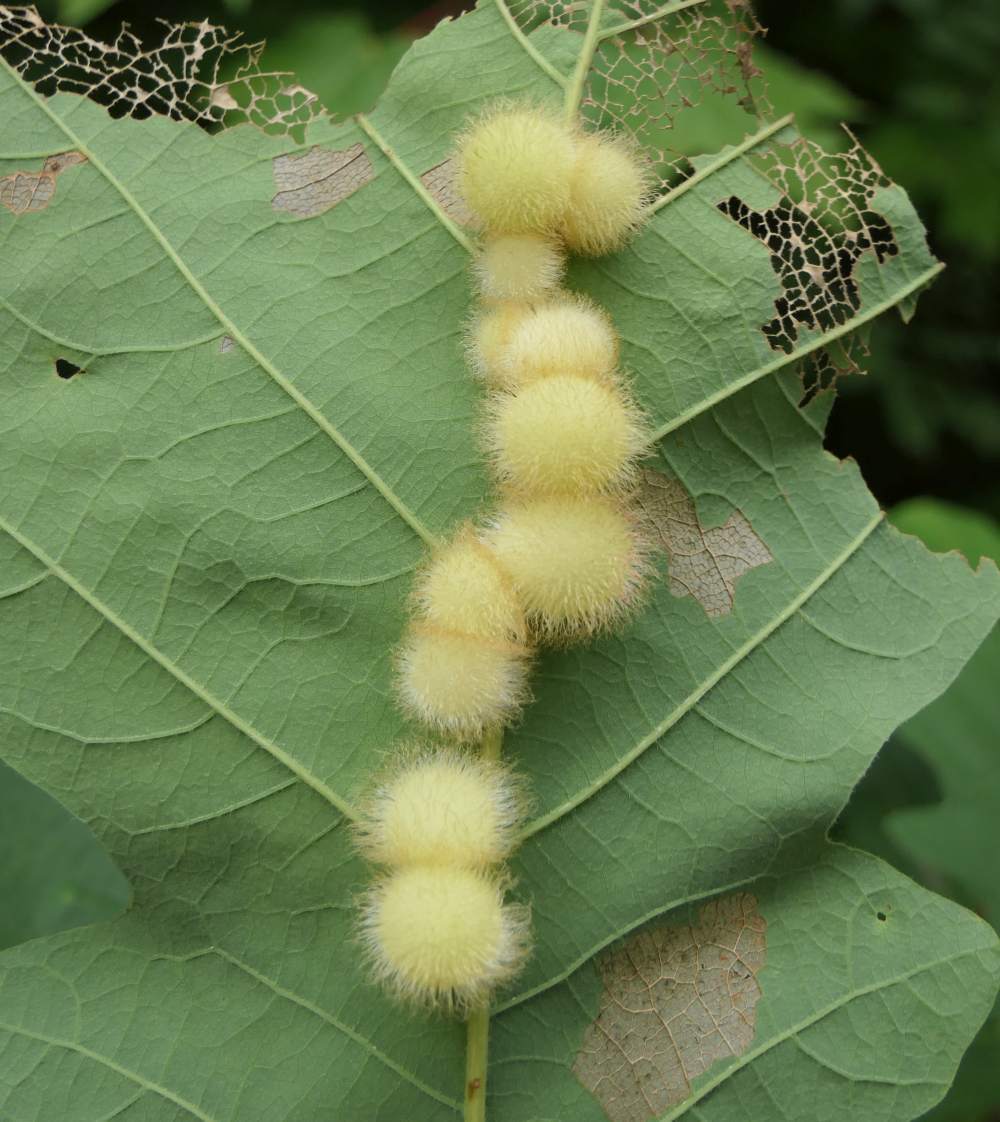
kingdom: Animalia
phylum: Arthropoda
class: Insecta
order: Hymenoptera
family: Cynipidae
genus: Acraspis
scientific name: Acraspis villosa
